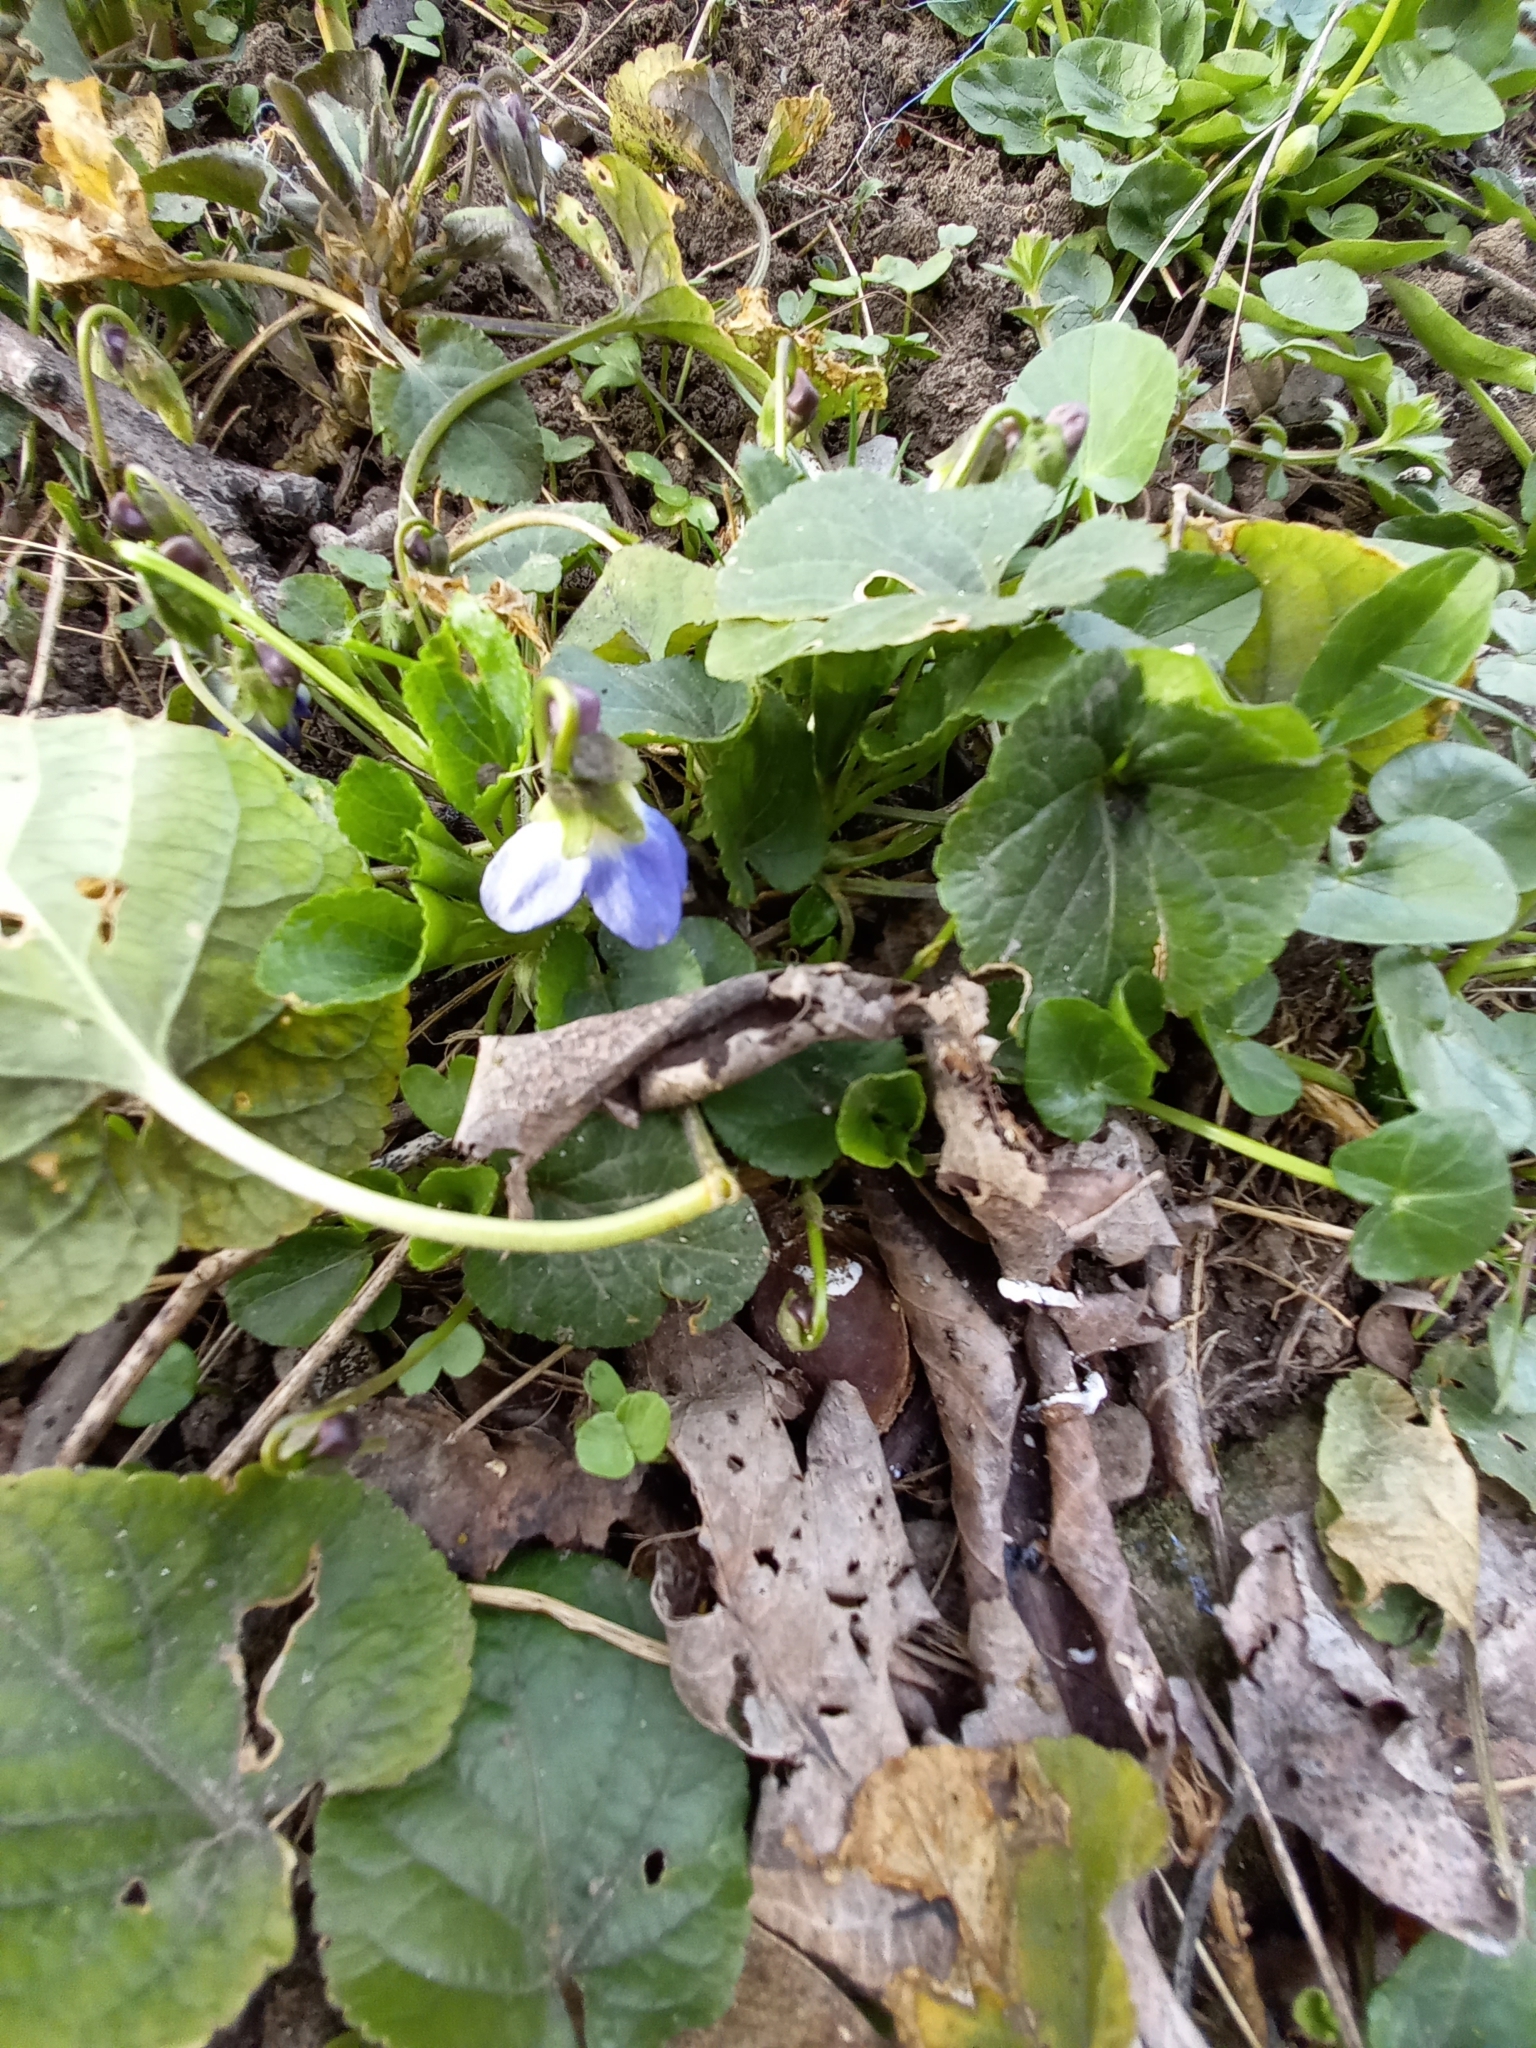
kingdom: Plantae
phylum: Tracheophyta
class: Magnoliopsida
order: Malpighiales
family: Violaceae
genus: Viola
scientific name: Viola suavis
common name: Russian violet
